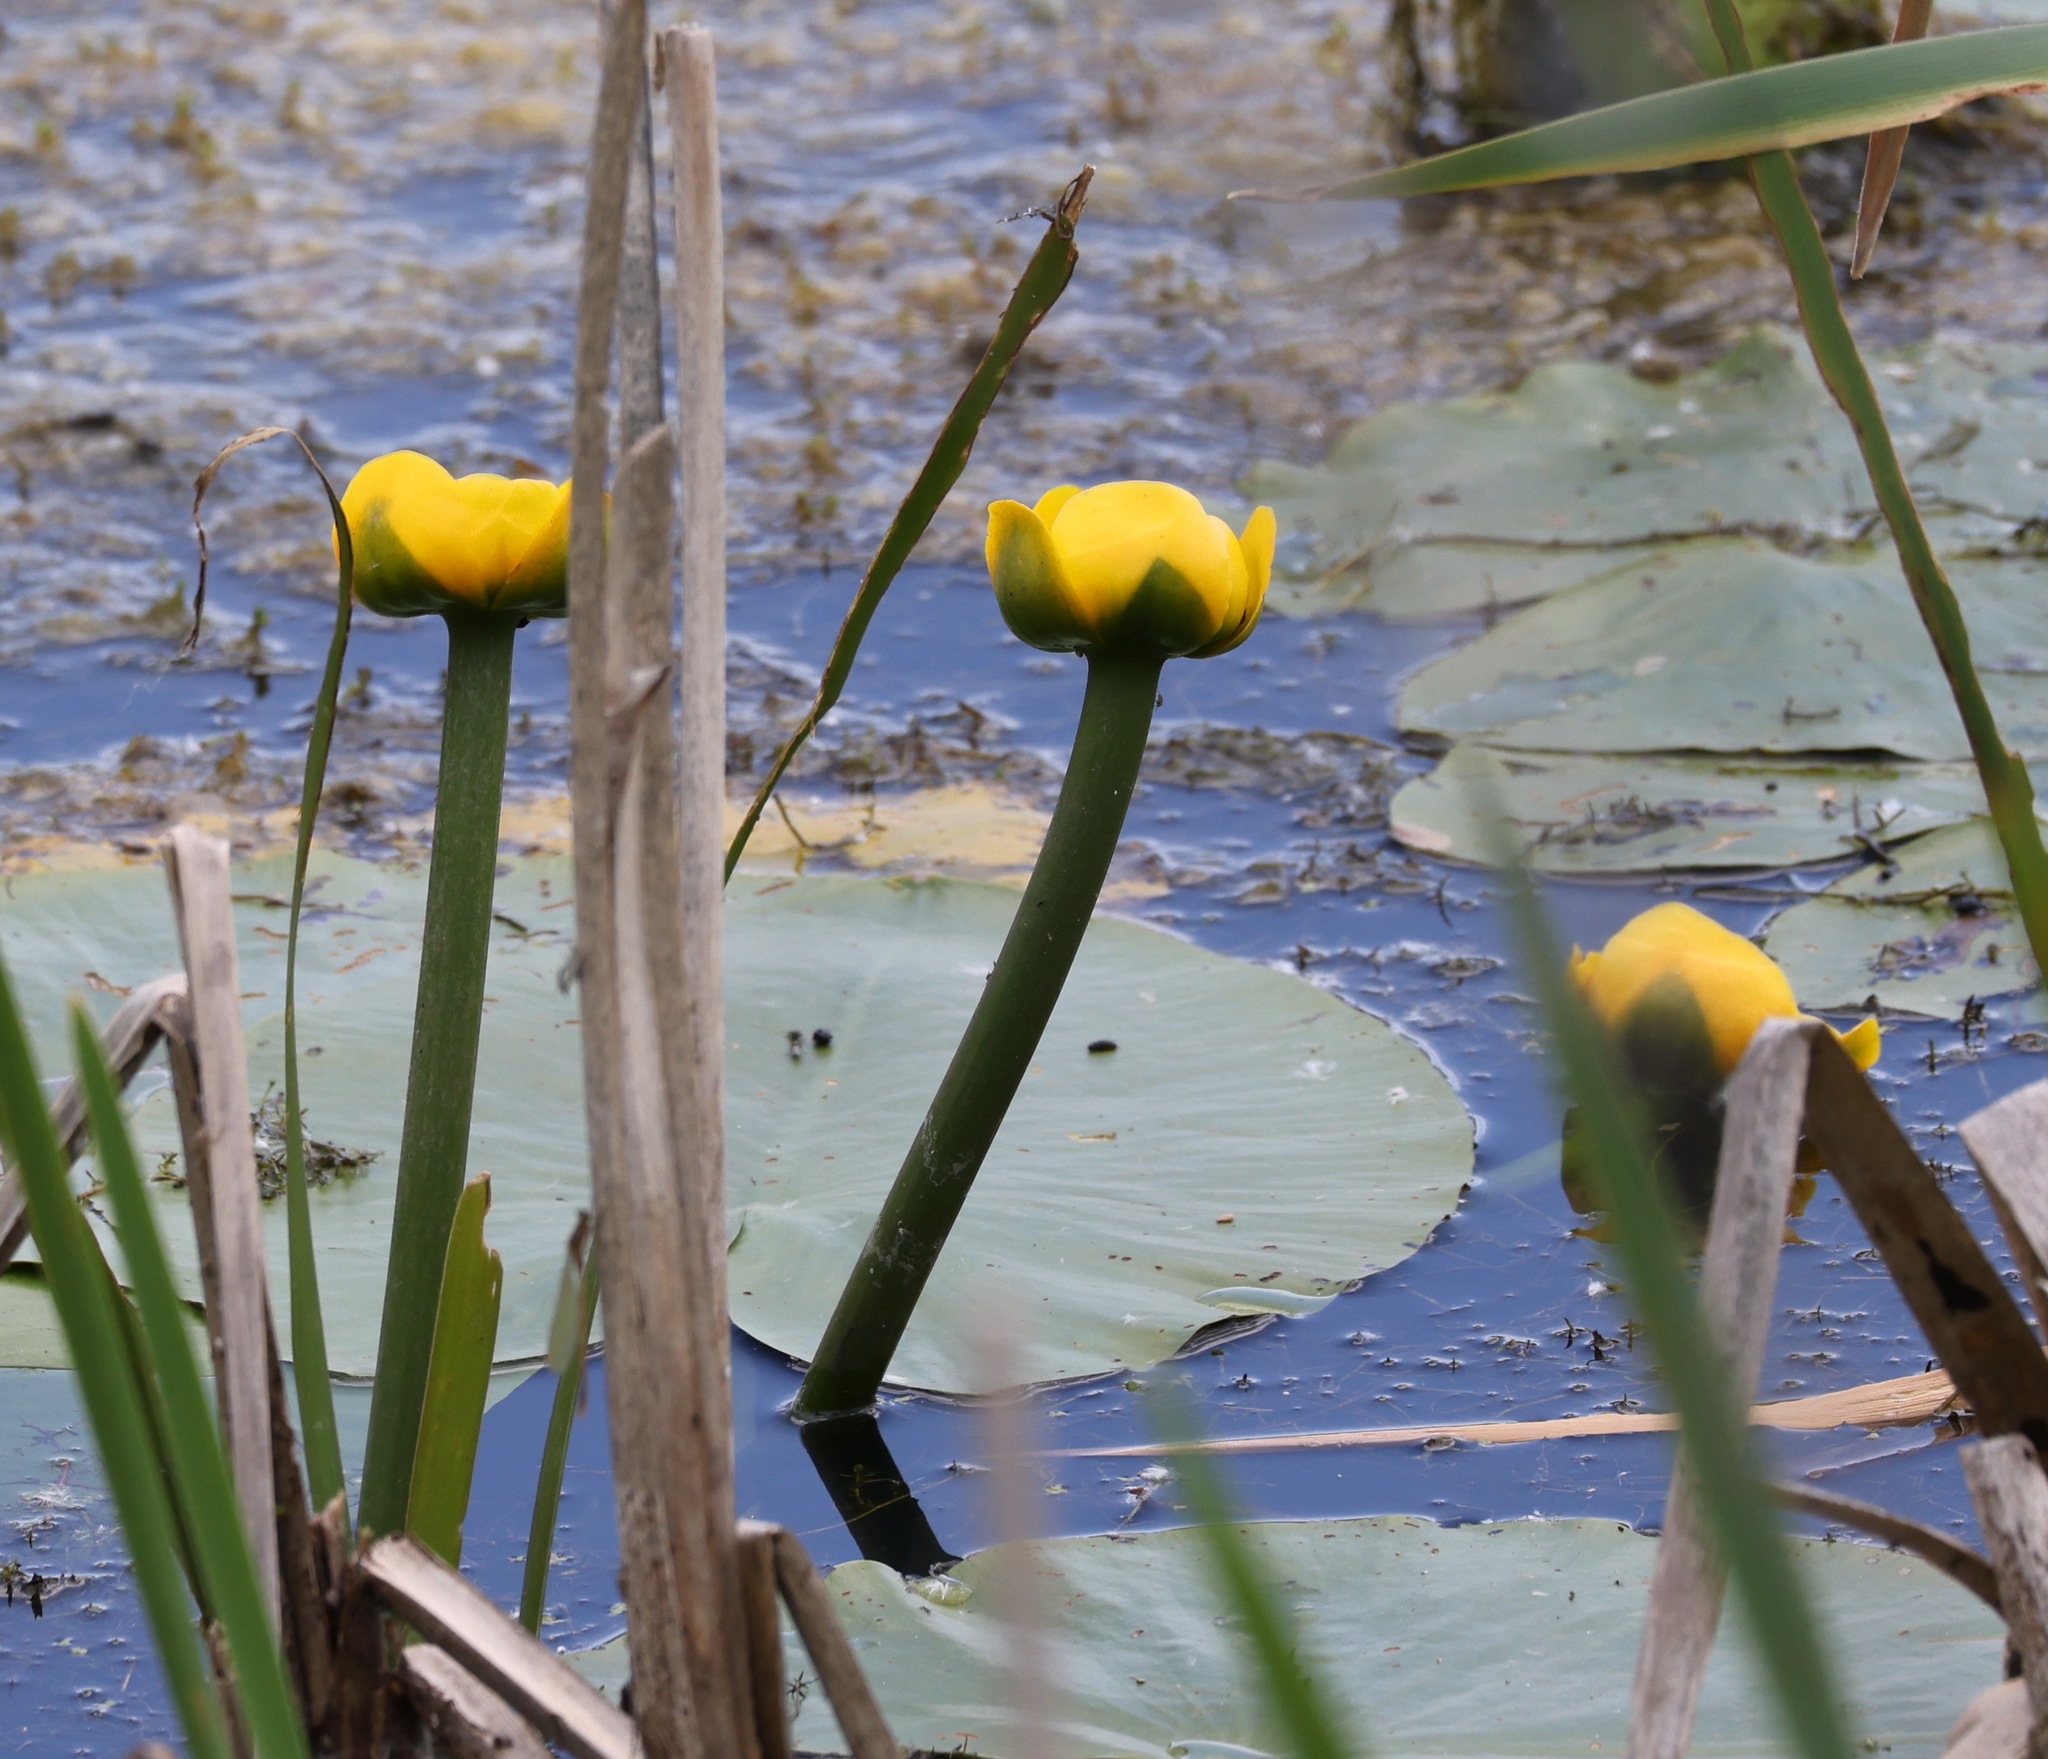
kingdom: Plantae
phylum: Tracheophyta
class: Magnoliopsida
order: Nymphaeales
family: Nymphaeaceae
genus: Nuphar
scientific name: Nuphar lutea
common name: Yellow water-lily
